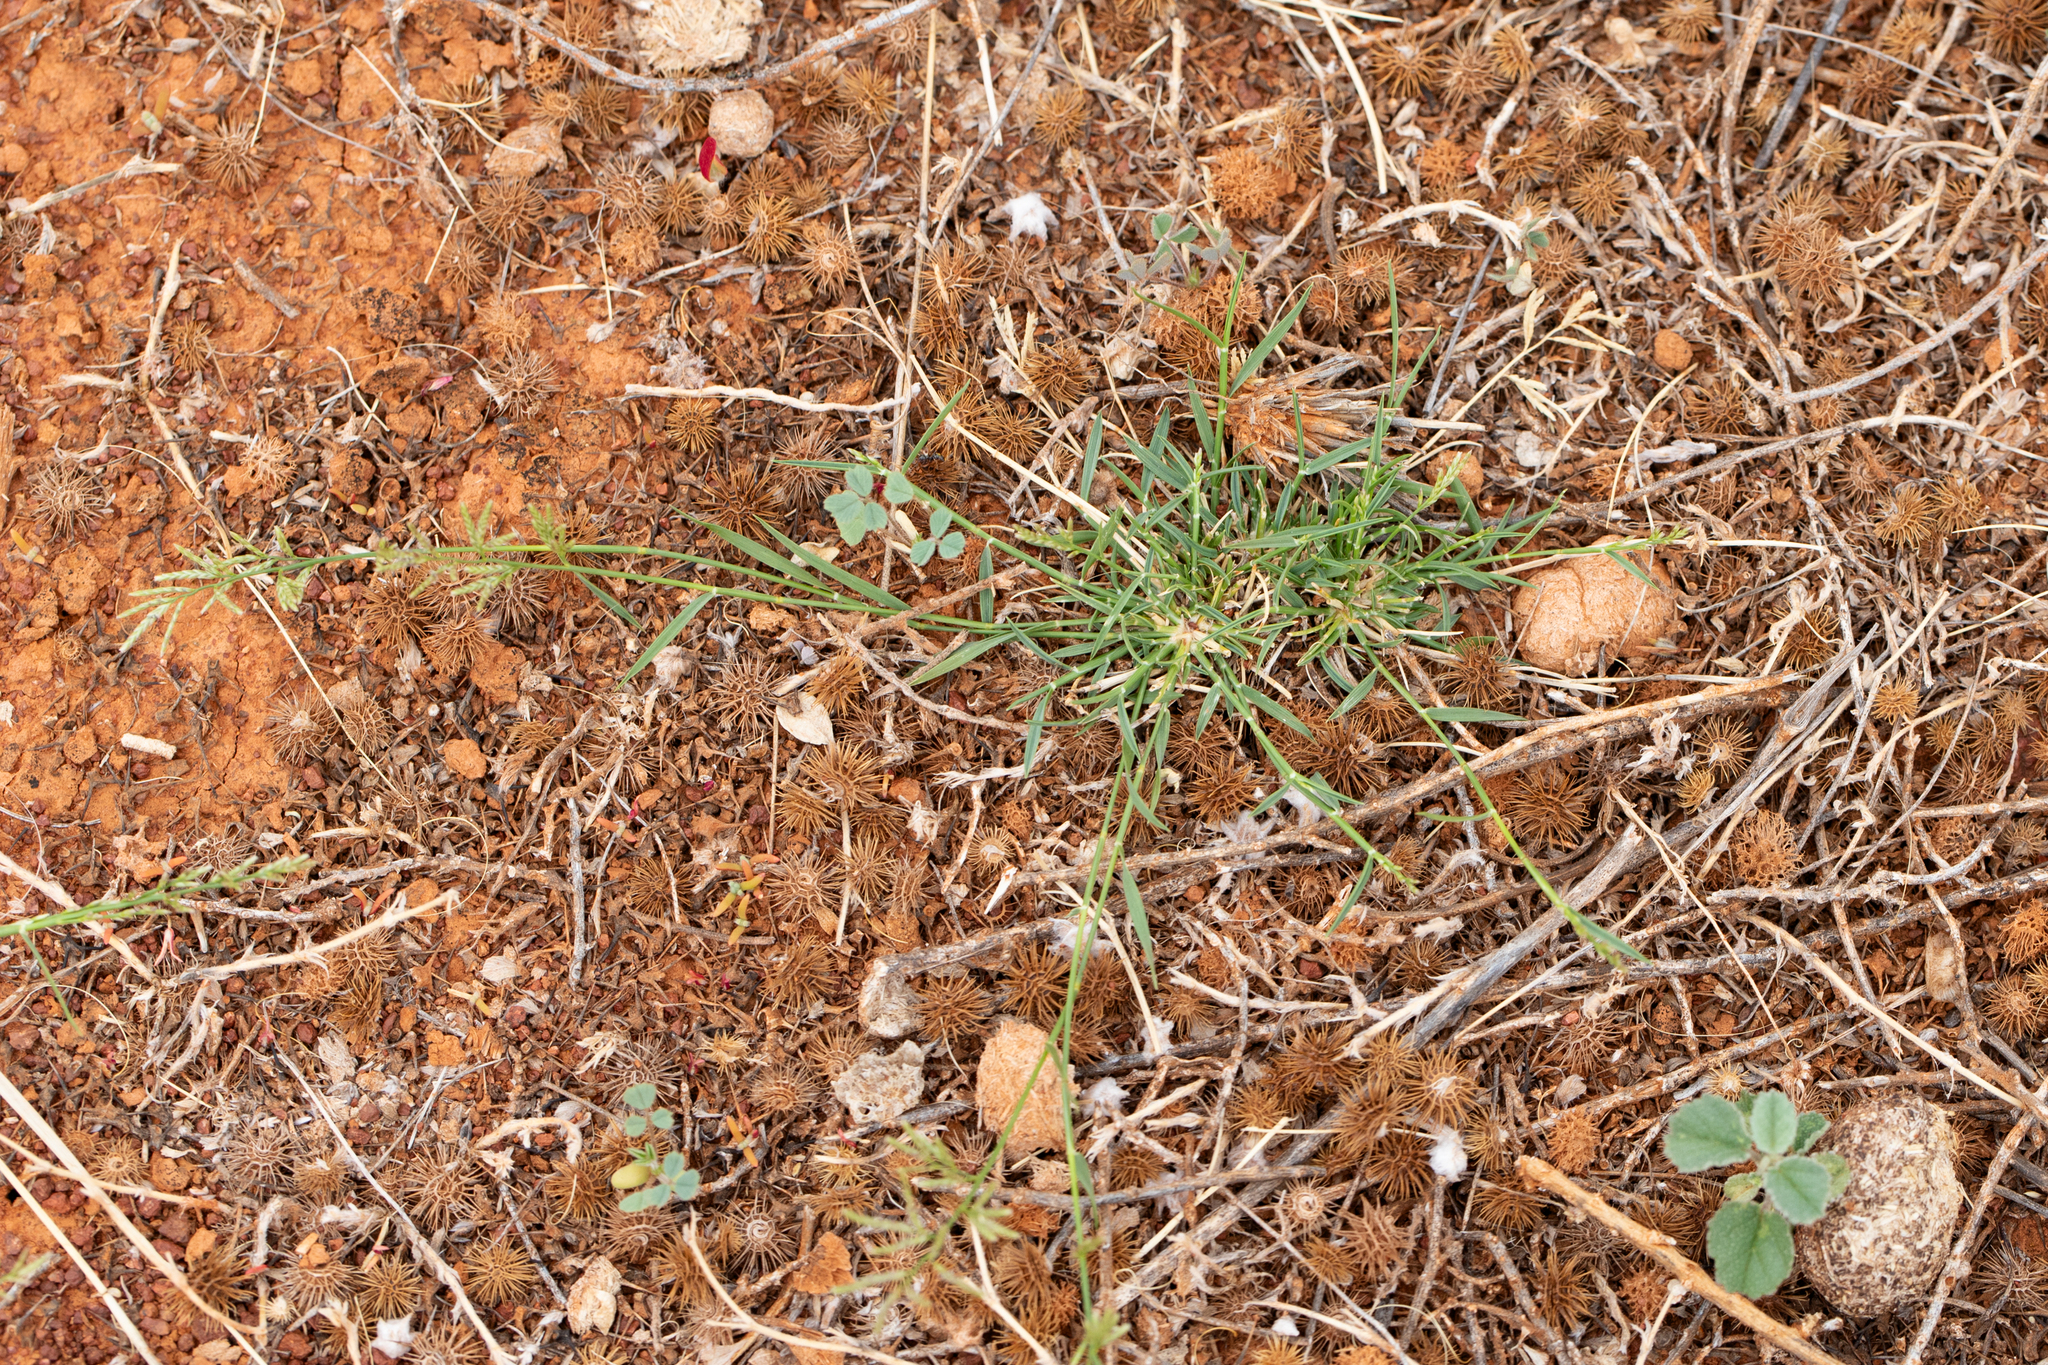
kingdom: Plantae
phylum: Tracheophyta
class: Liliopsida
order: Poales
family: Poaceae
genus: Eragrostis
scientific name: Eragrostis dielsii
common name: Lovegrass
